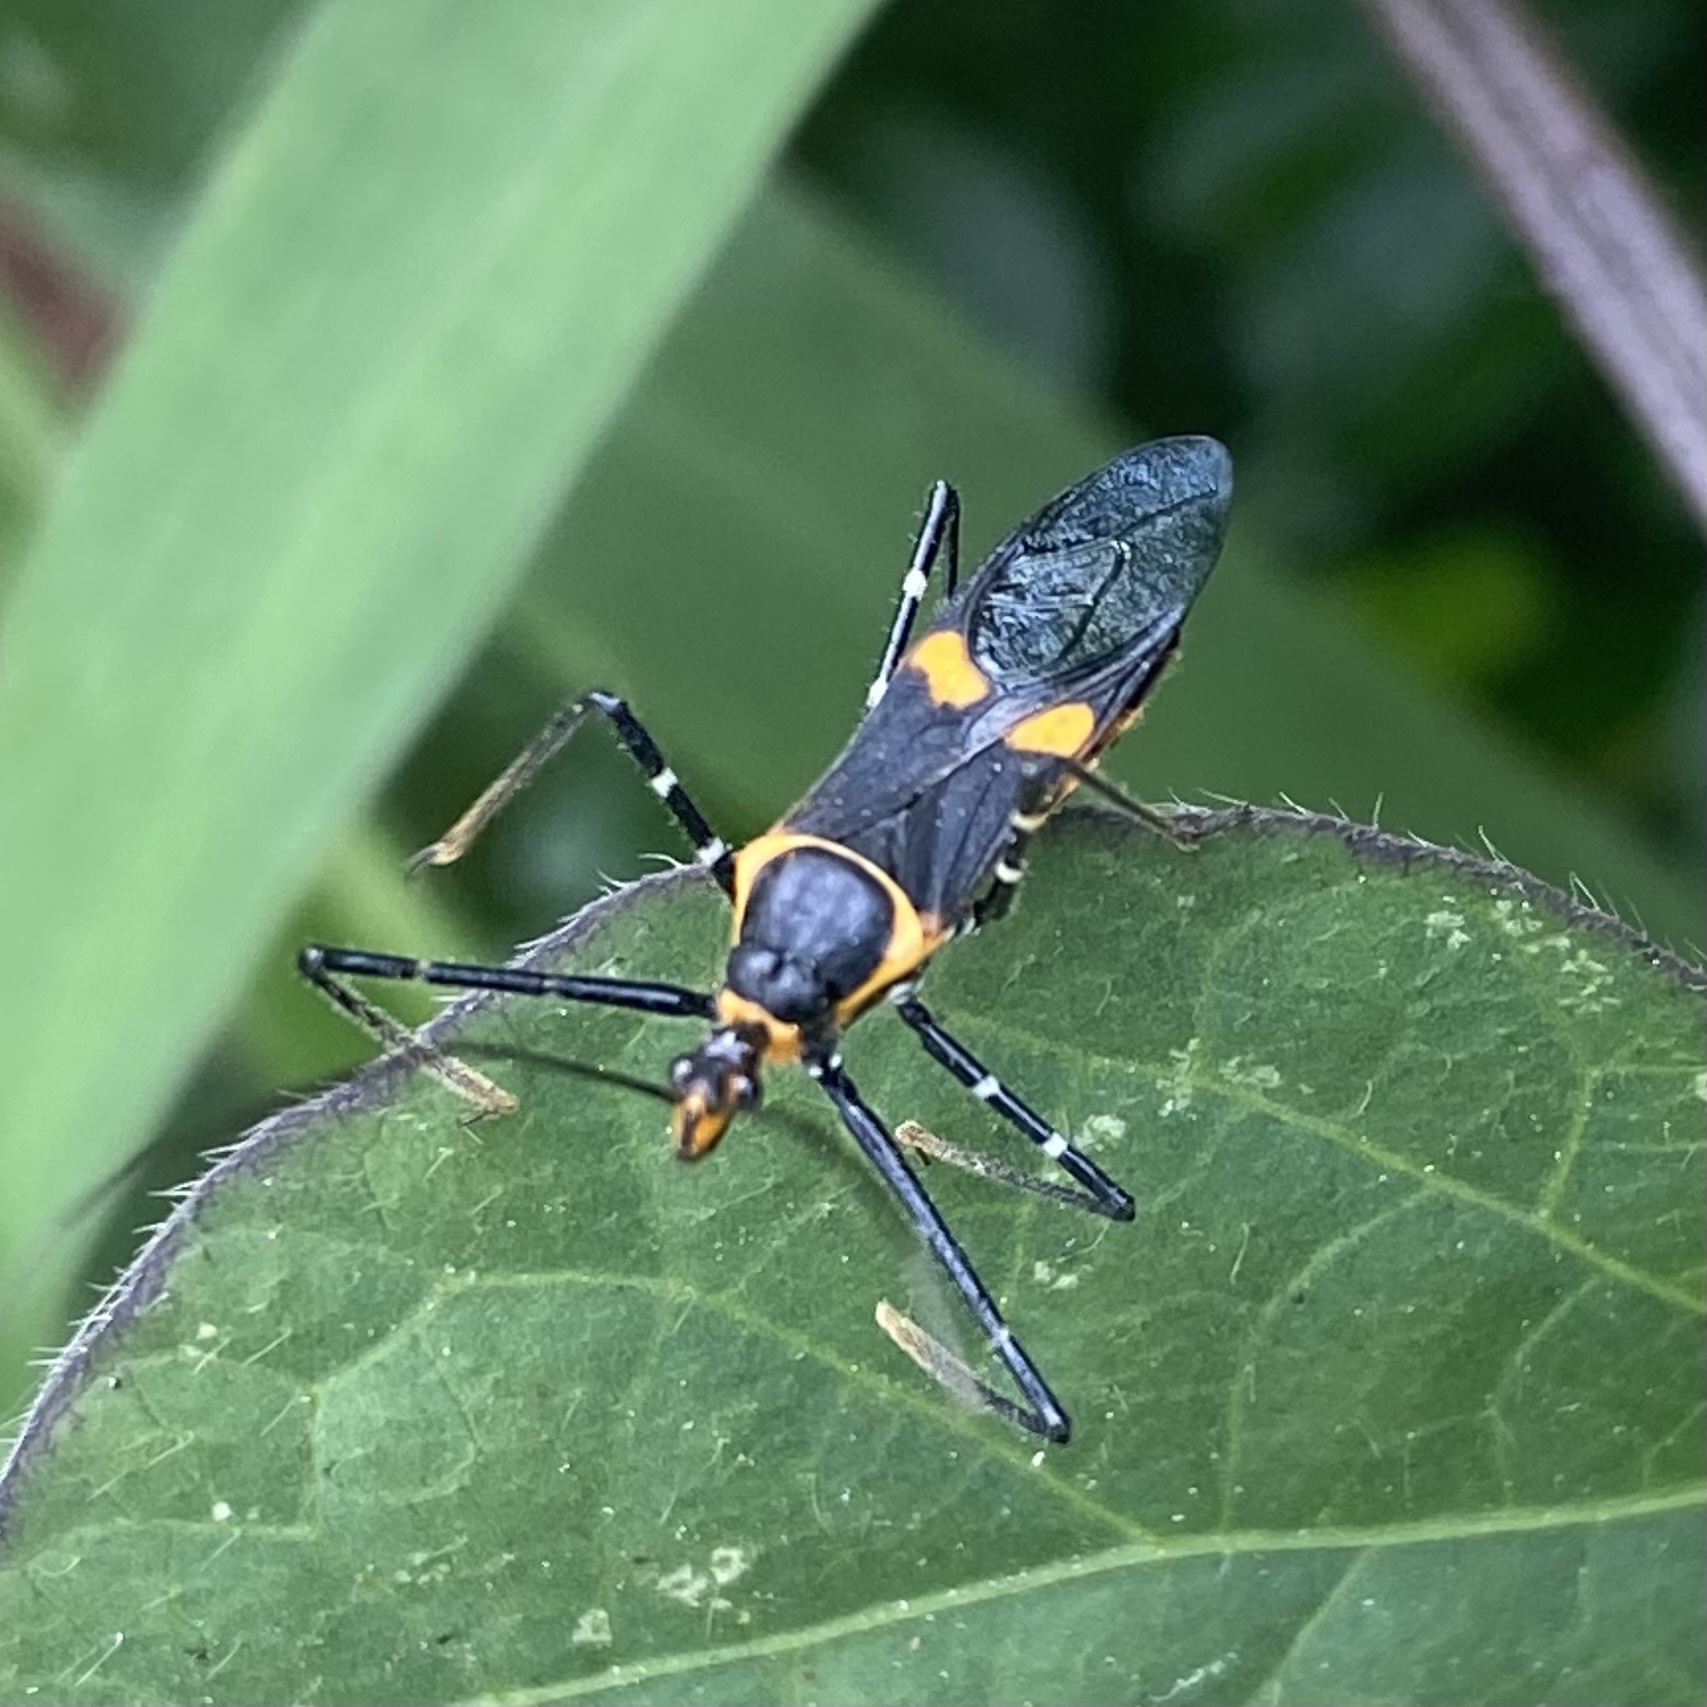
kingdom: Animalia
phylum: Arthropoda
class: Insecta
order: Hemiptera
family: Reduviidae
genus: Zelus
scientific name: Zelus longipes
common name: Milkweed assassin bug
